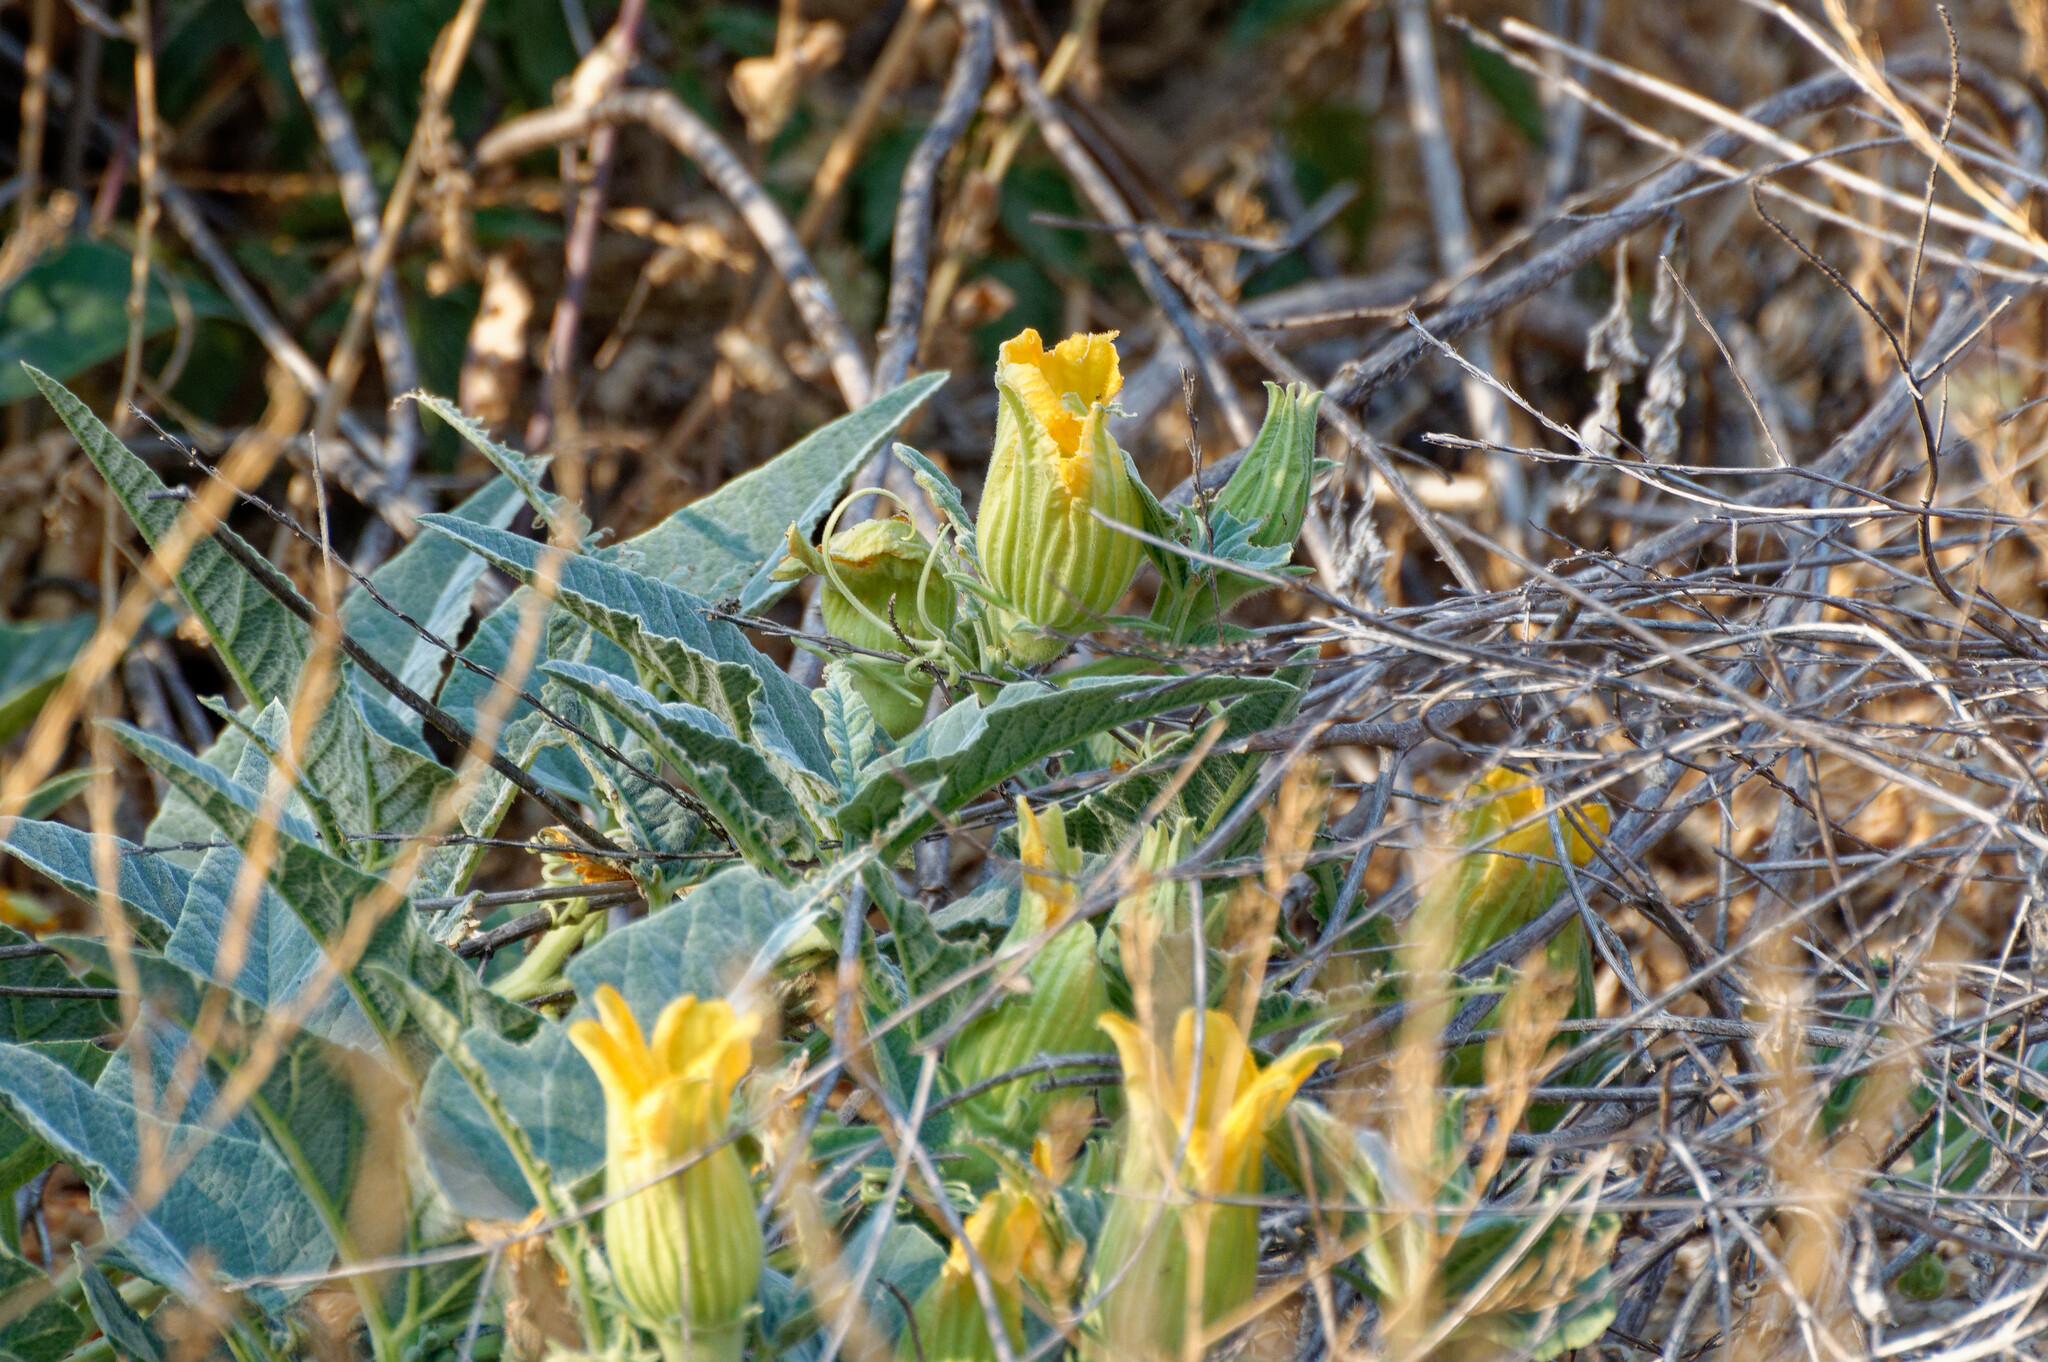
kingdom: Plantae
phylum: Tracheophyta
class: Magnoliopsida
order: Cucurbitales
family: Cucurbitaceae
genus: Cucurbita
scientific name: Cucurbita foetidissima
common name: Buffalo gourd
